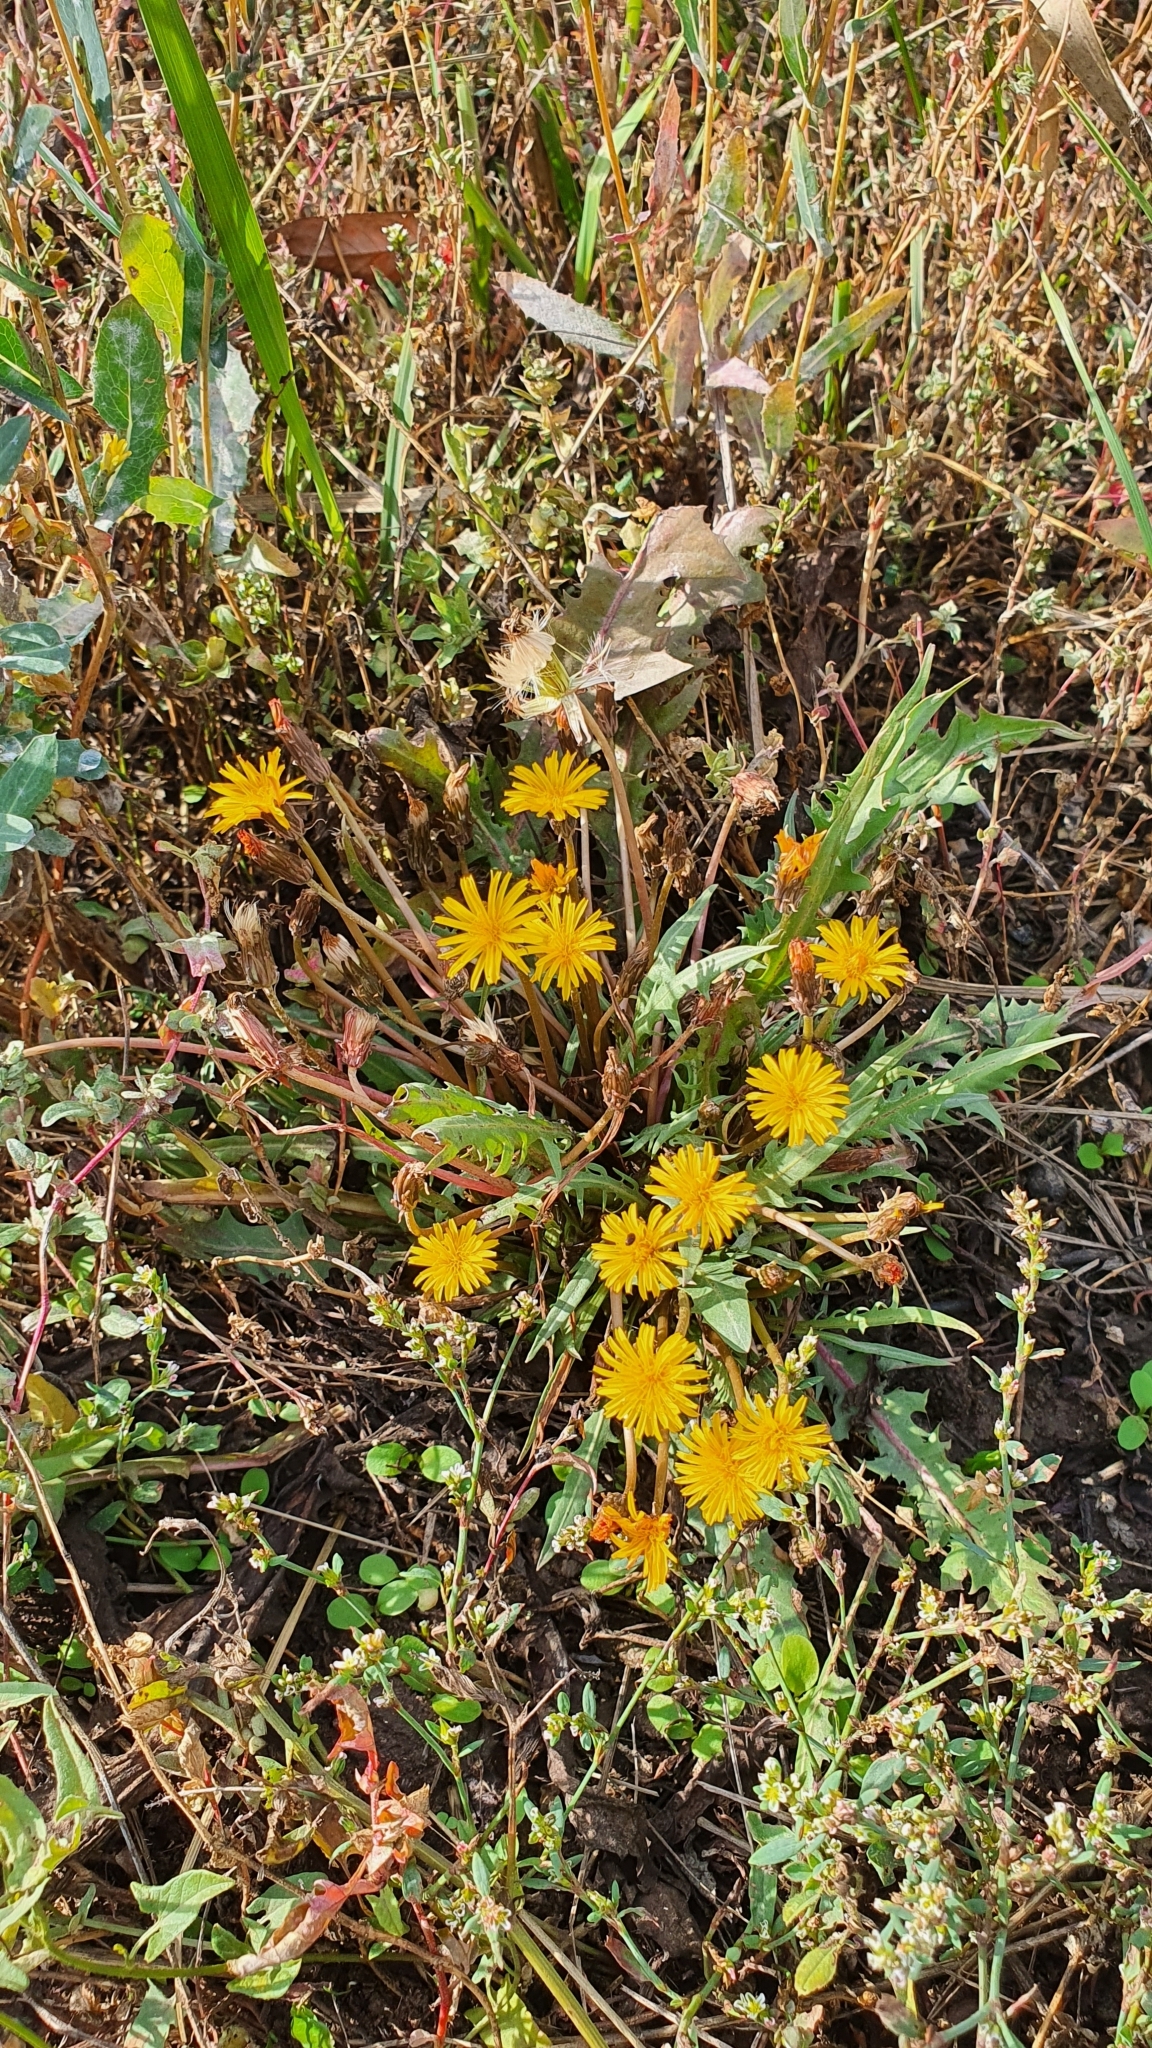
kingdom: Plantae
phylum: Tracheophyta
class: Magnoliopsida
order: Asterales
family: Asteraceae
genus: Taraxacum
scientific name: Taraxacum bessarabicum
